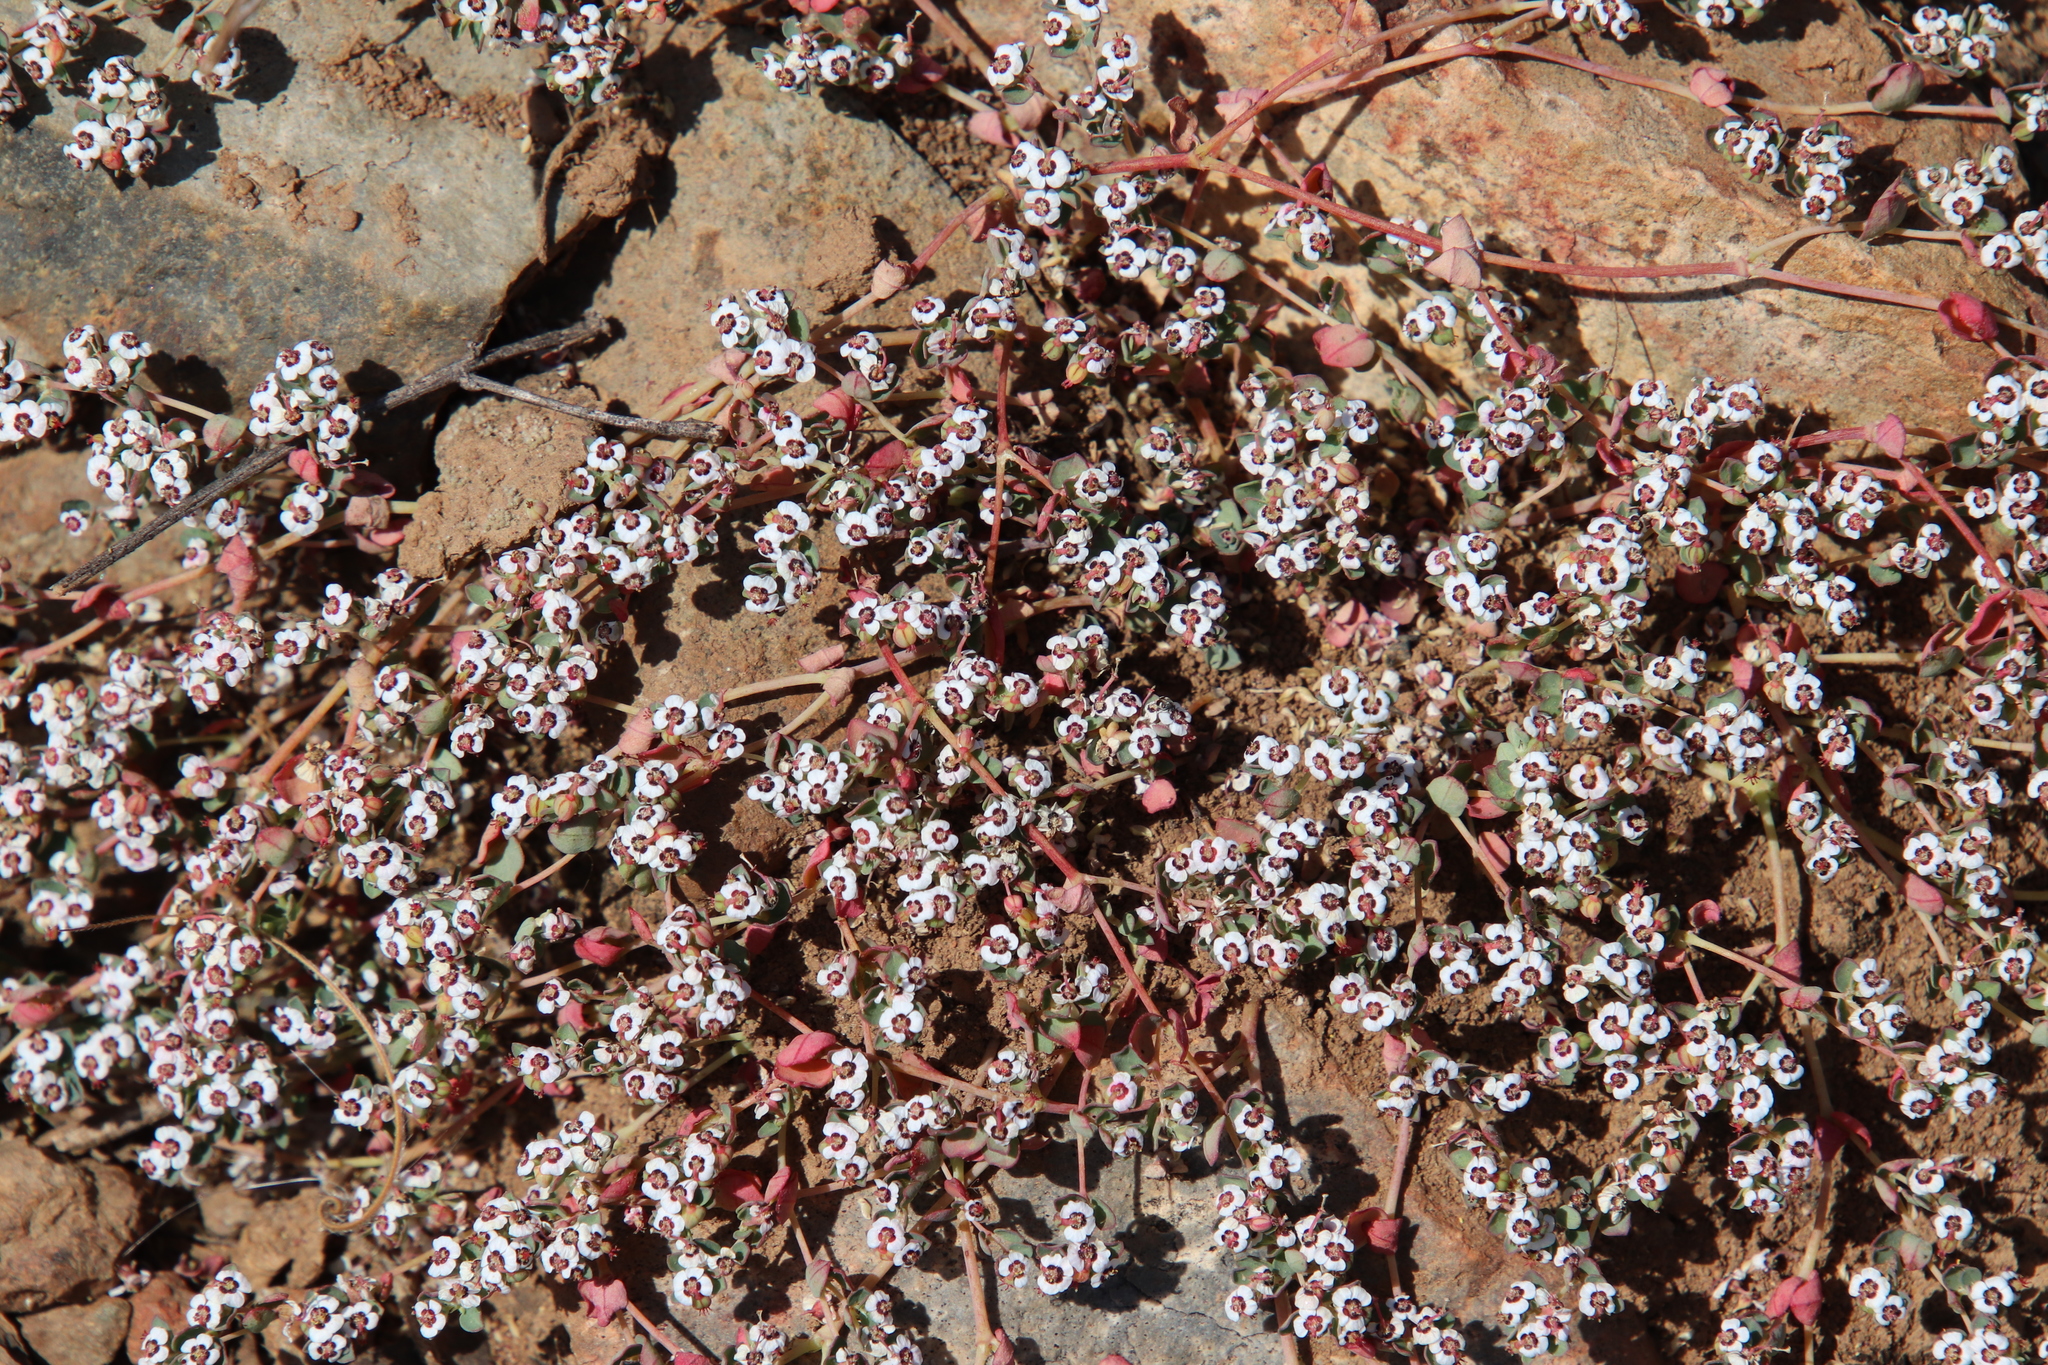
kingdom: Plantae
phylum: Tracheophyta
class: Magnoliopsida
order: Malpighiales
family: Euphorbiaceae
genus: Euphorbia
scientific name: Euphorbia polycarpa
